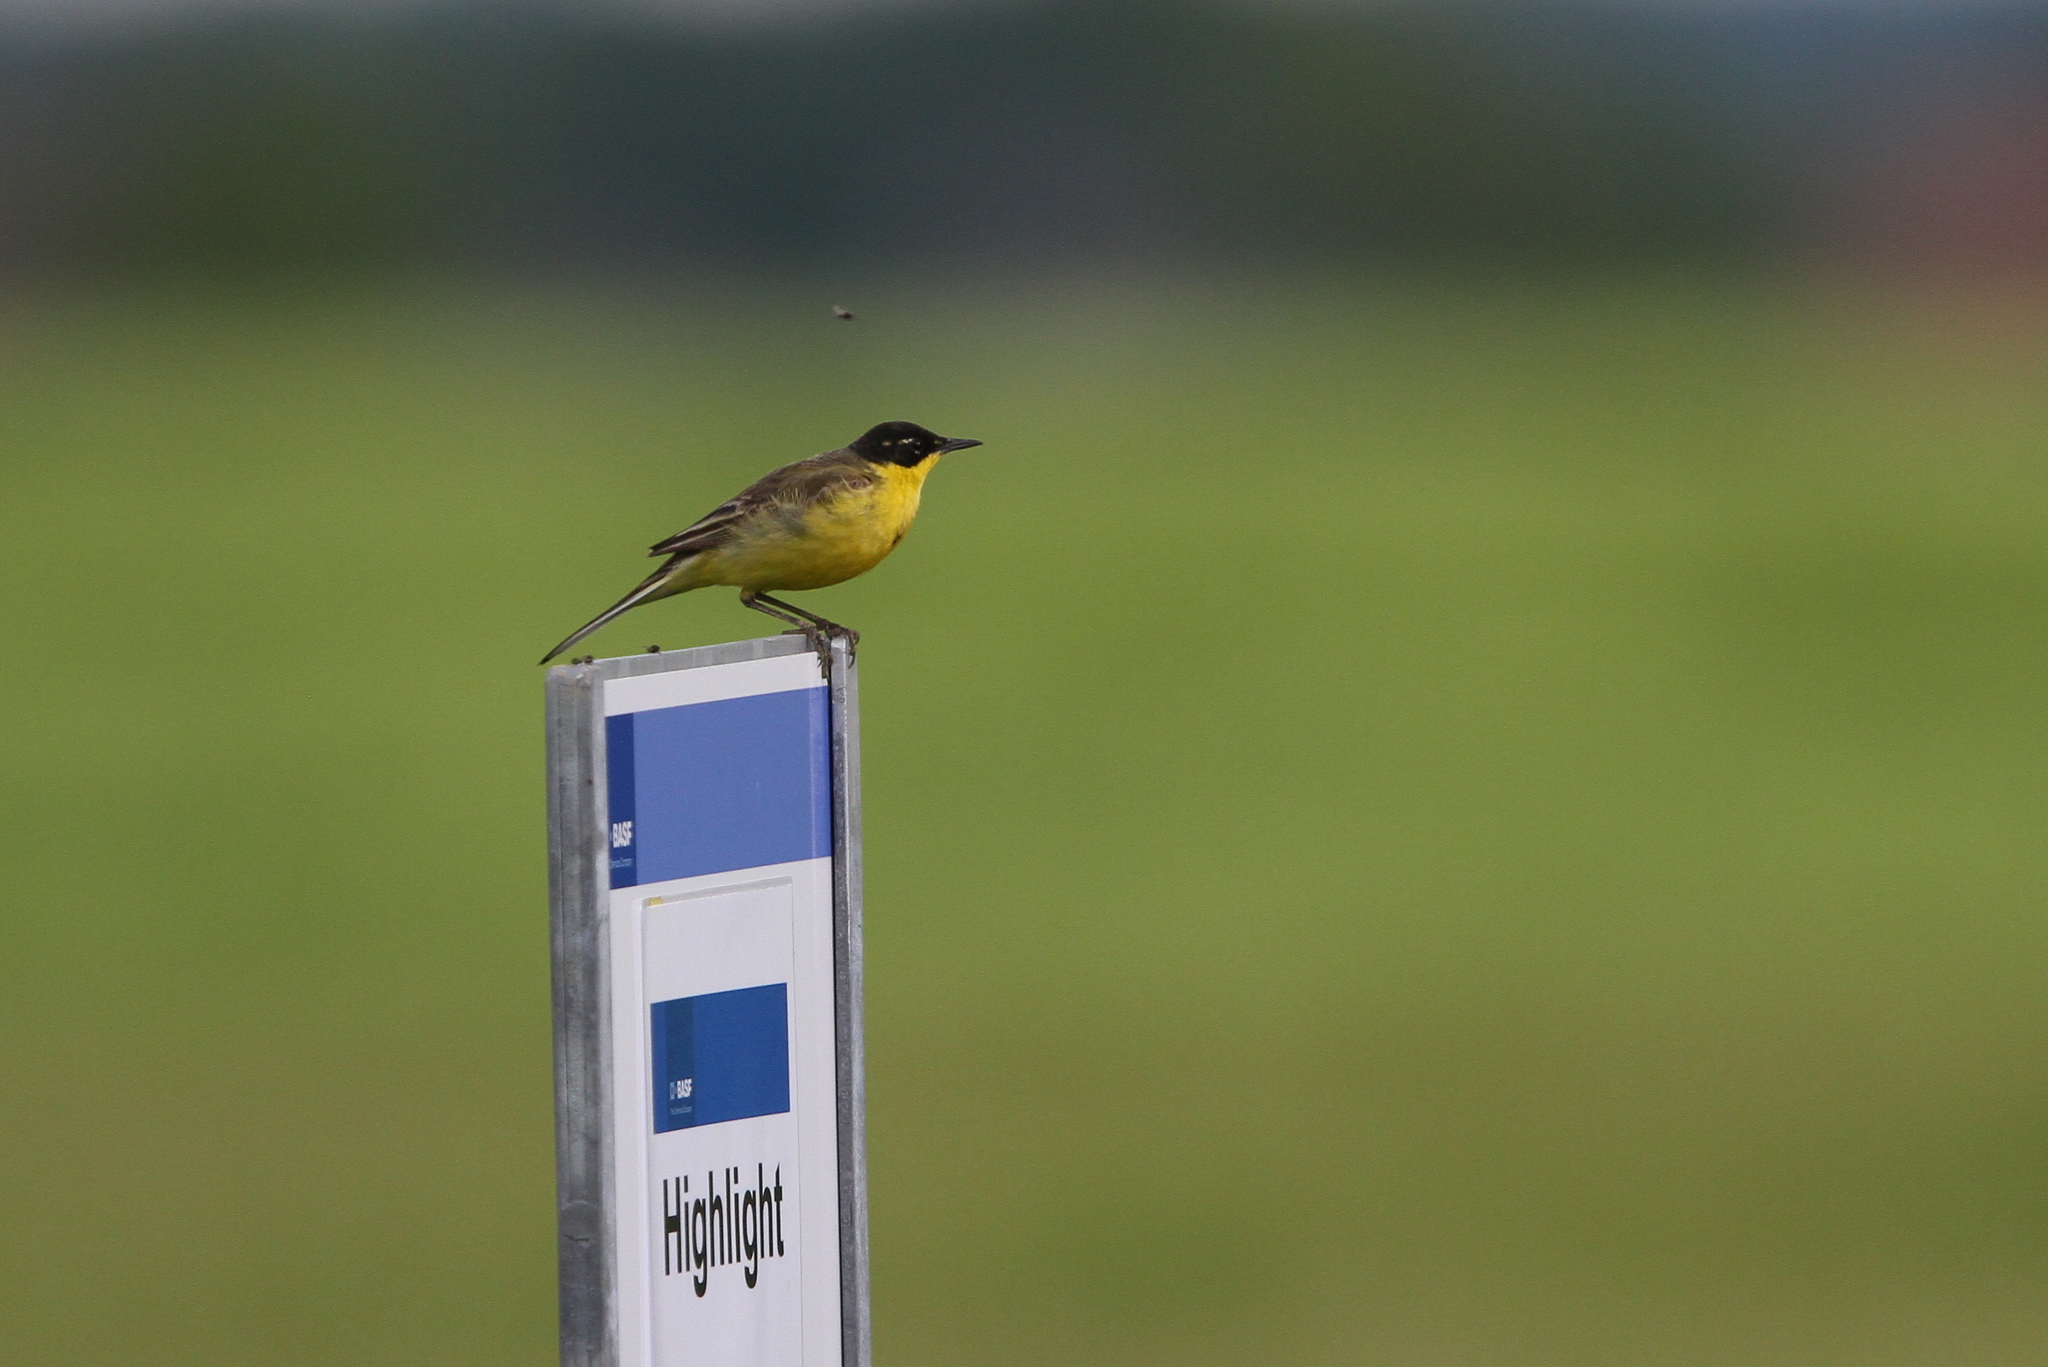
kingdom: Animalia
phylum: Chordata
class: Aves
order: Passeriformes
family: Motacillidae
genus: Motacilla
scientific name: Motacilla flava
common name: Western yellow wagtail
